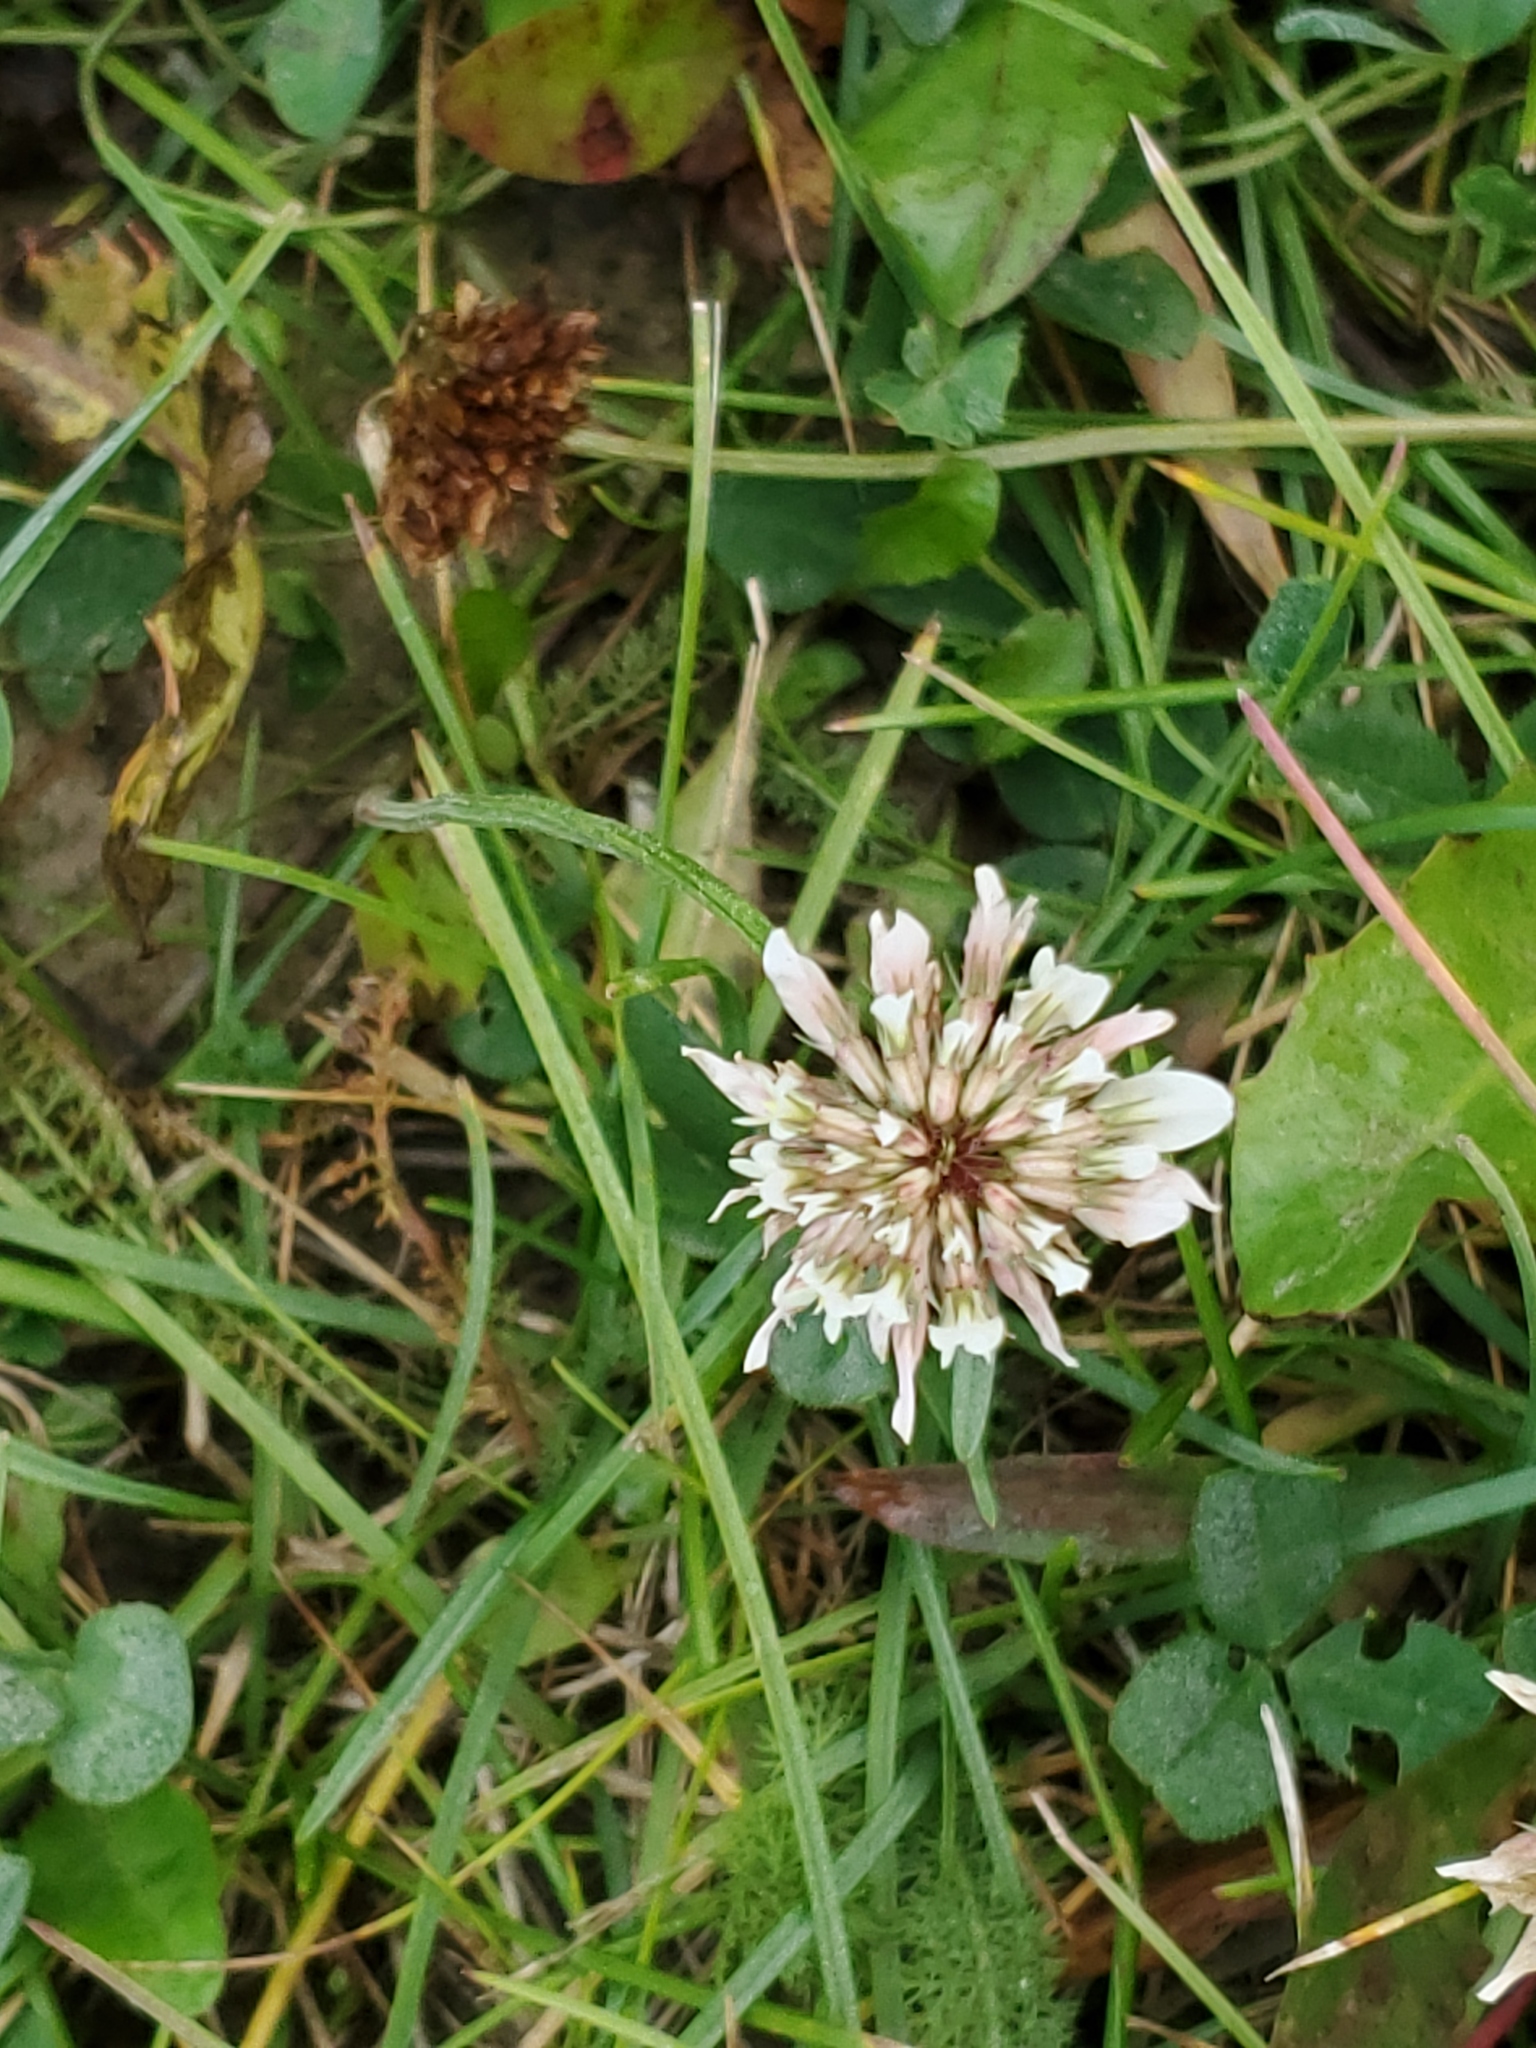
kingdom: Plantae
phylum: Tracheophyta
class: Magnoliopsida
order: Fabales
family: Fabaceae
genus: Trifolium
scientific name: Trifolium repens
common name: White clover
